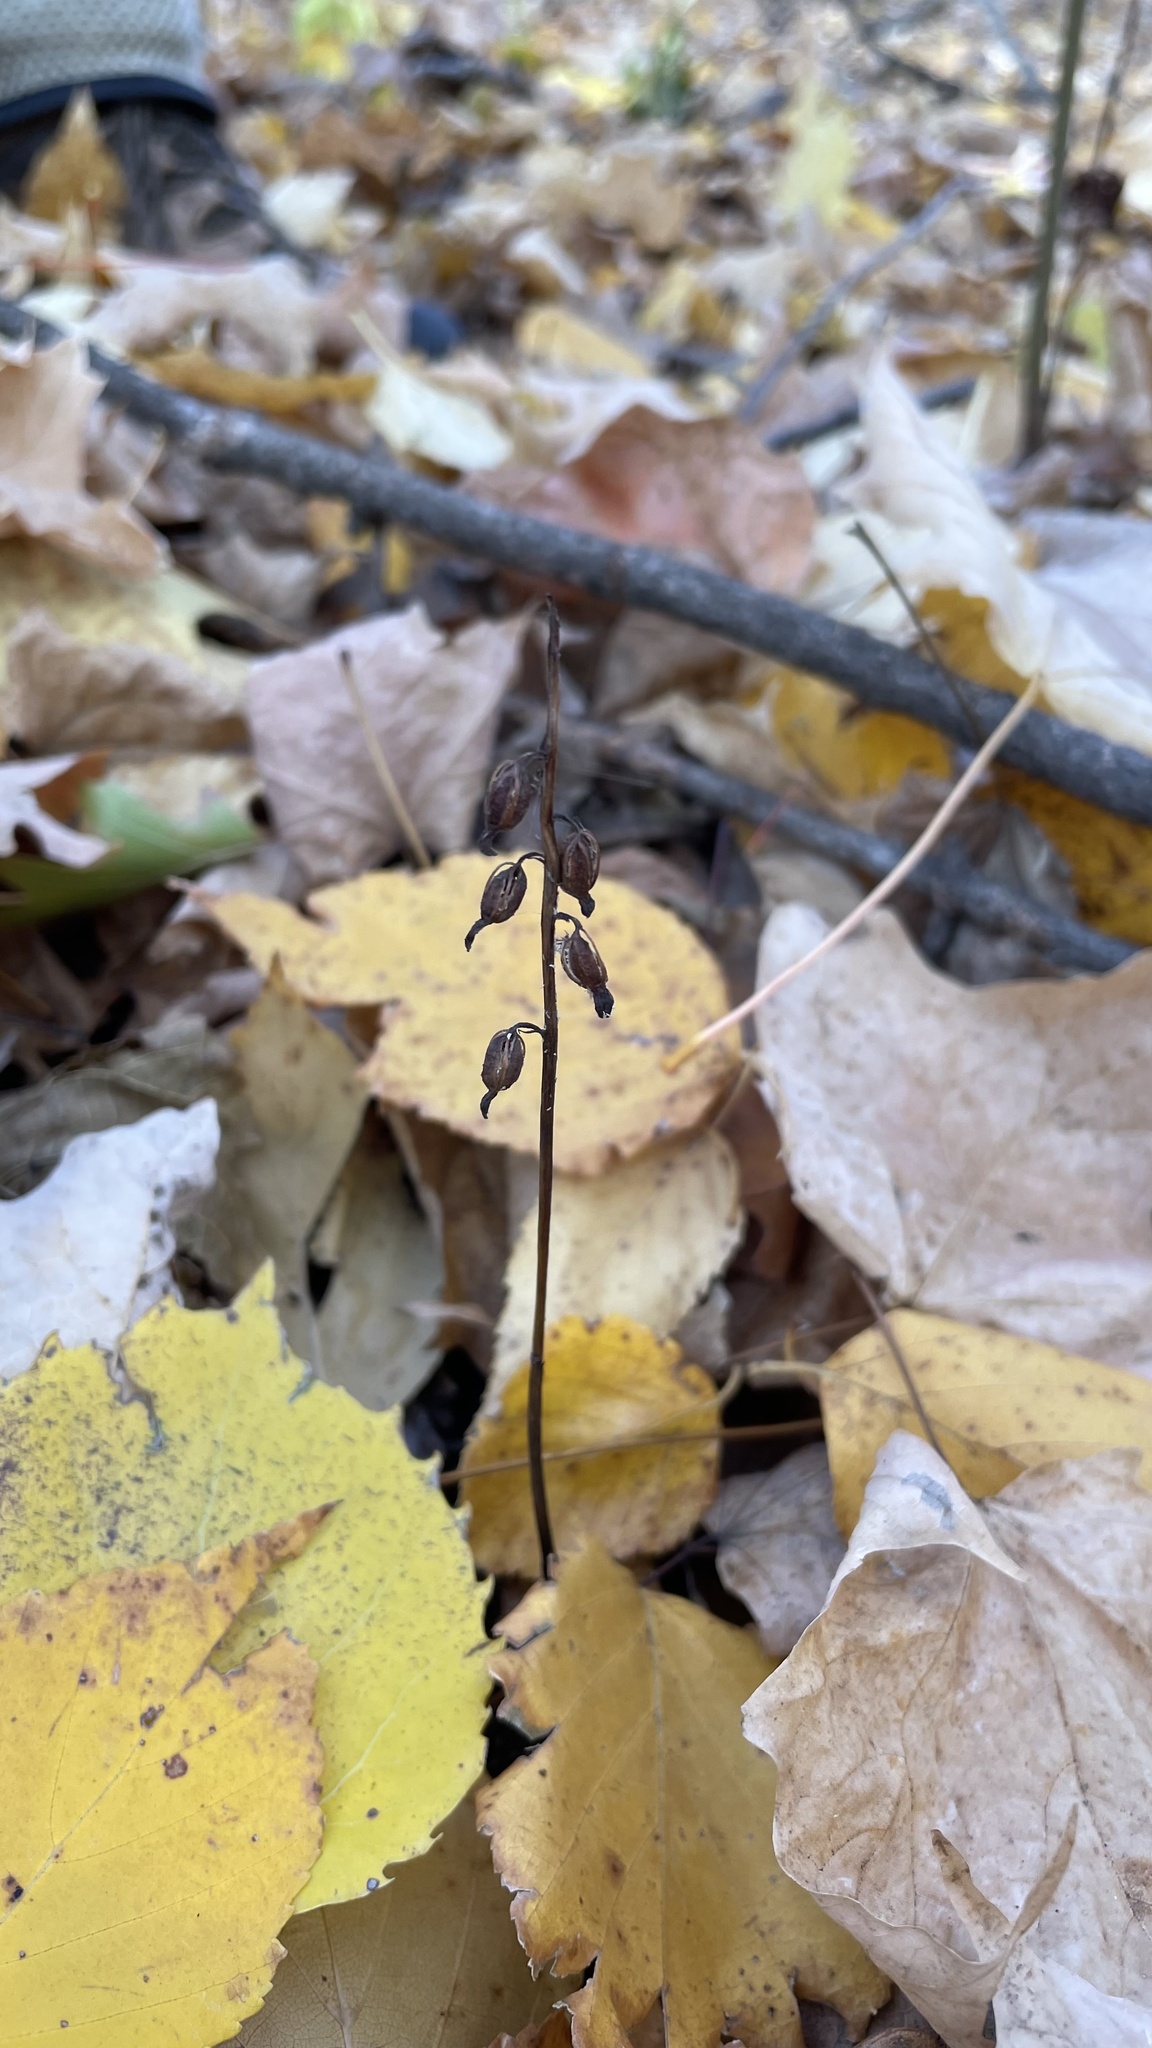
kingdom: Plantae
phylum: Tracheophyta
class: Liliopsida
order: Asparagales
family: Orchidaceae
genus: Corallorhiza
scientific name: Corallorhiza odontorhiza
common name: Autumn coralroot
